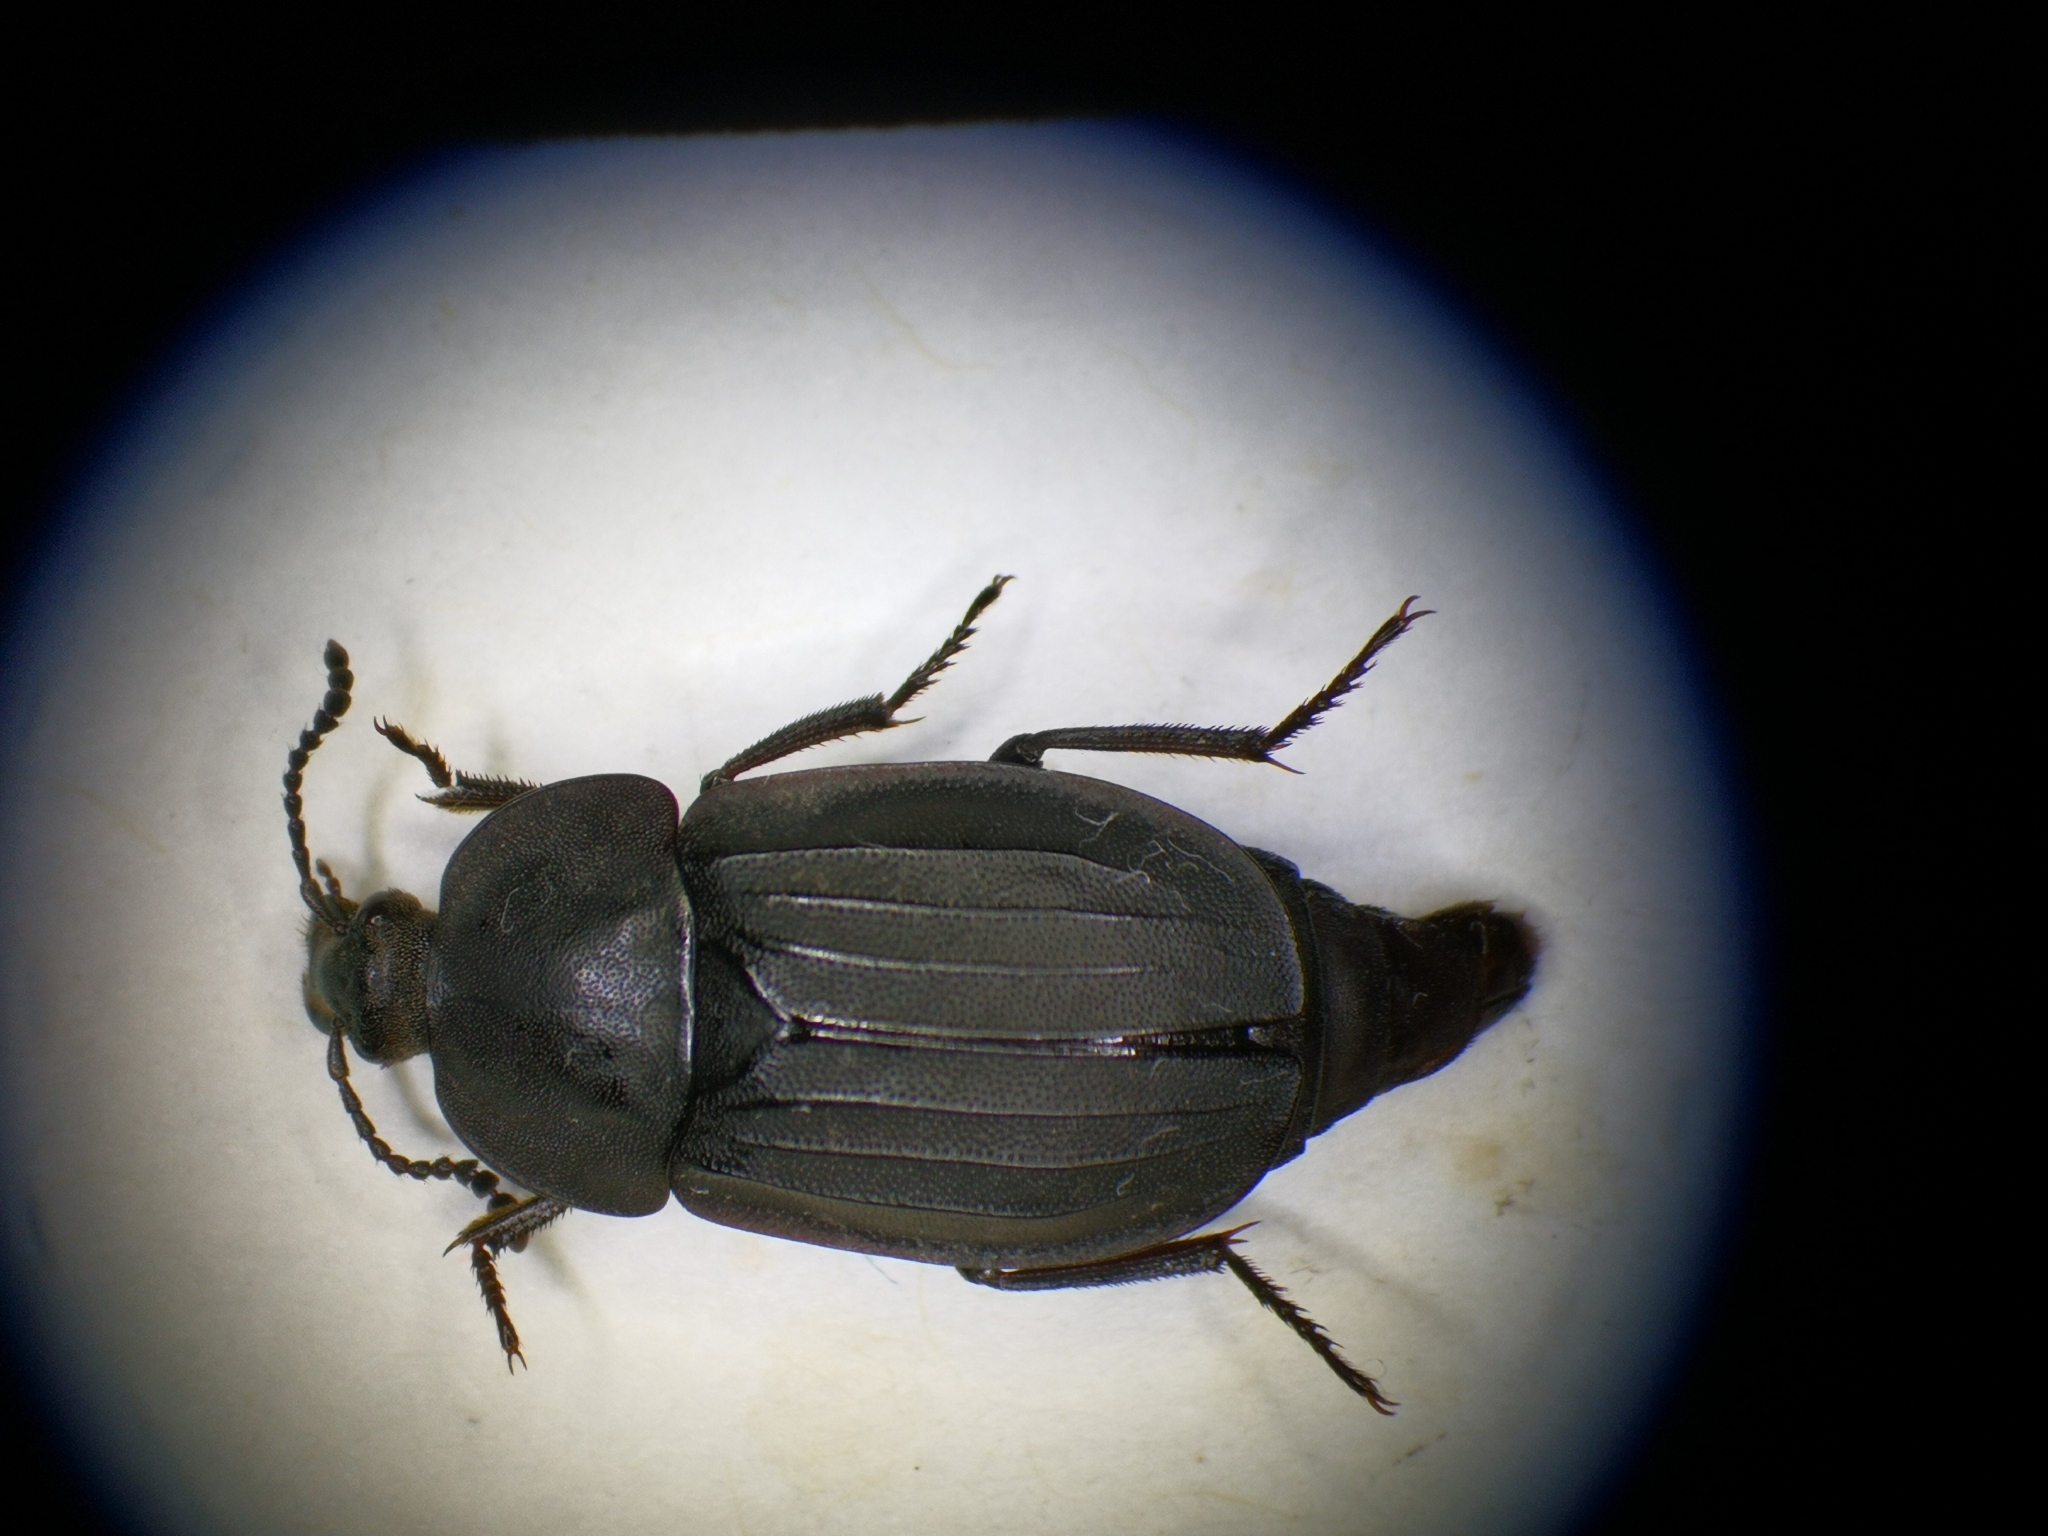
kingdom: Animalia
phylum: Arthropoda
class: Insecta
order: Coleoptera
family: Staphylinidae
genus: Silpha
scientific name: Silpha tristis
